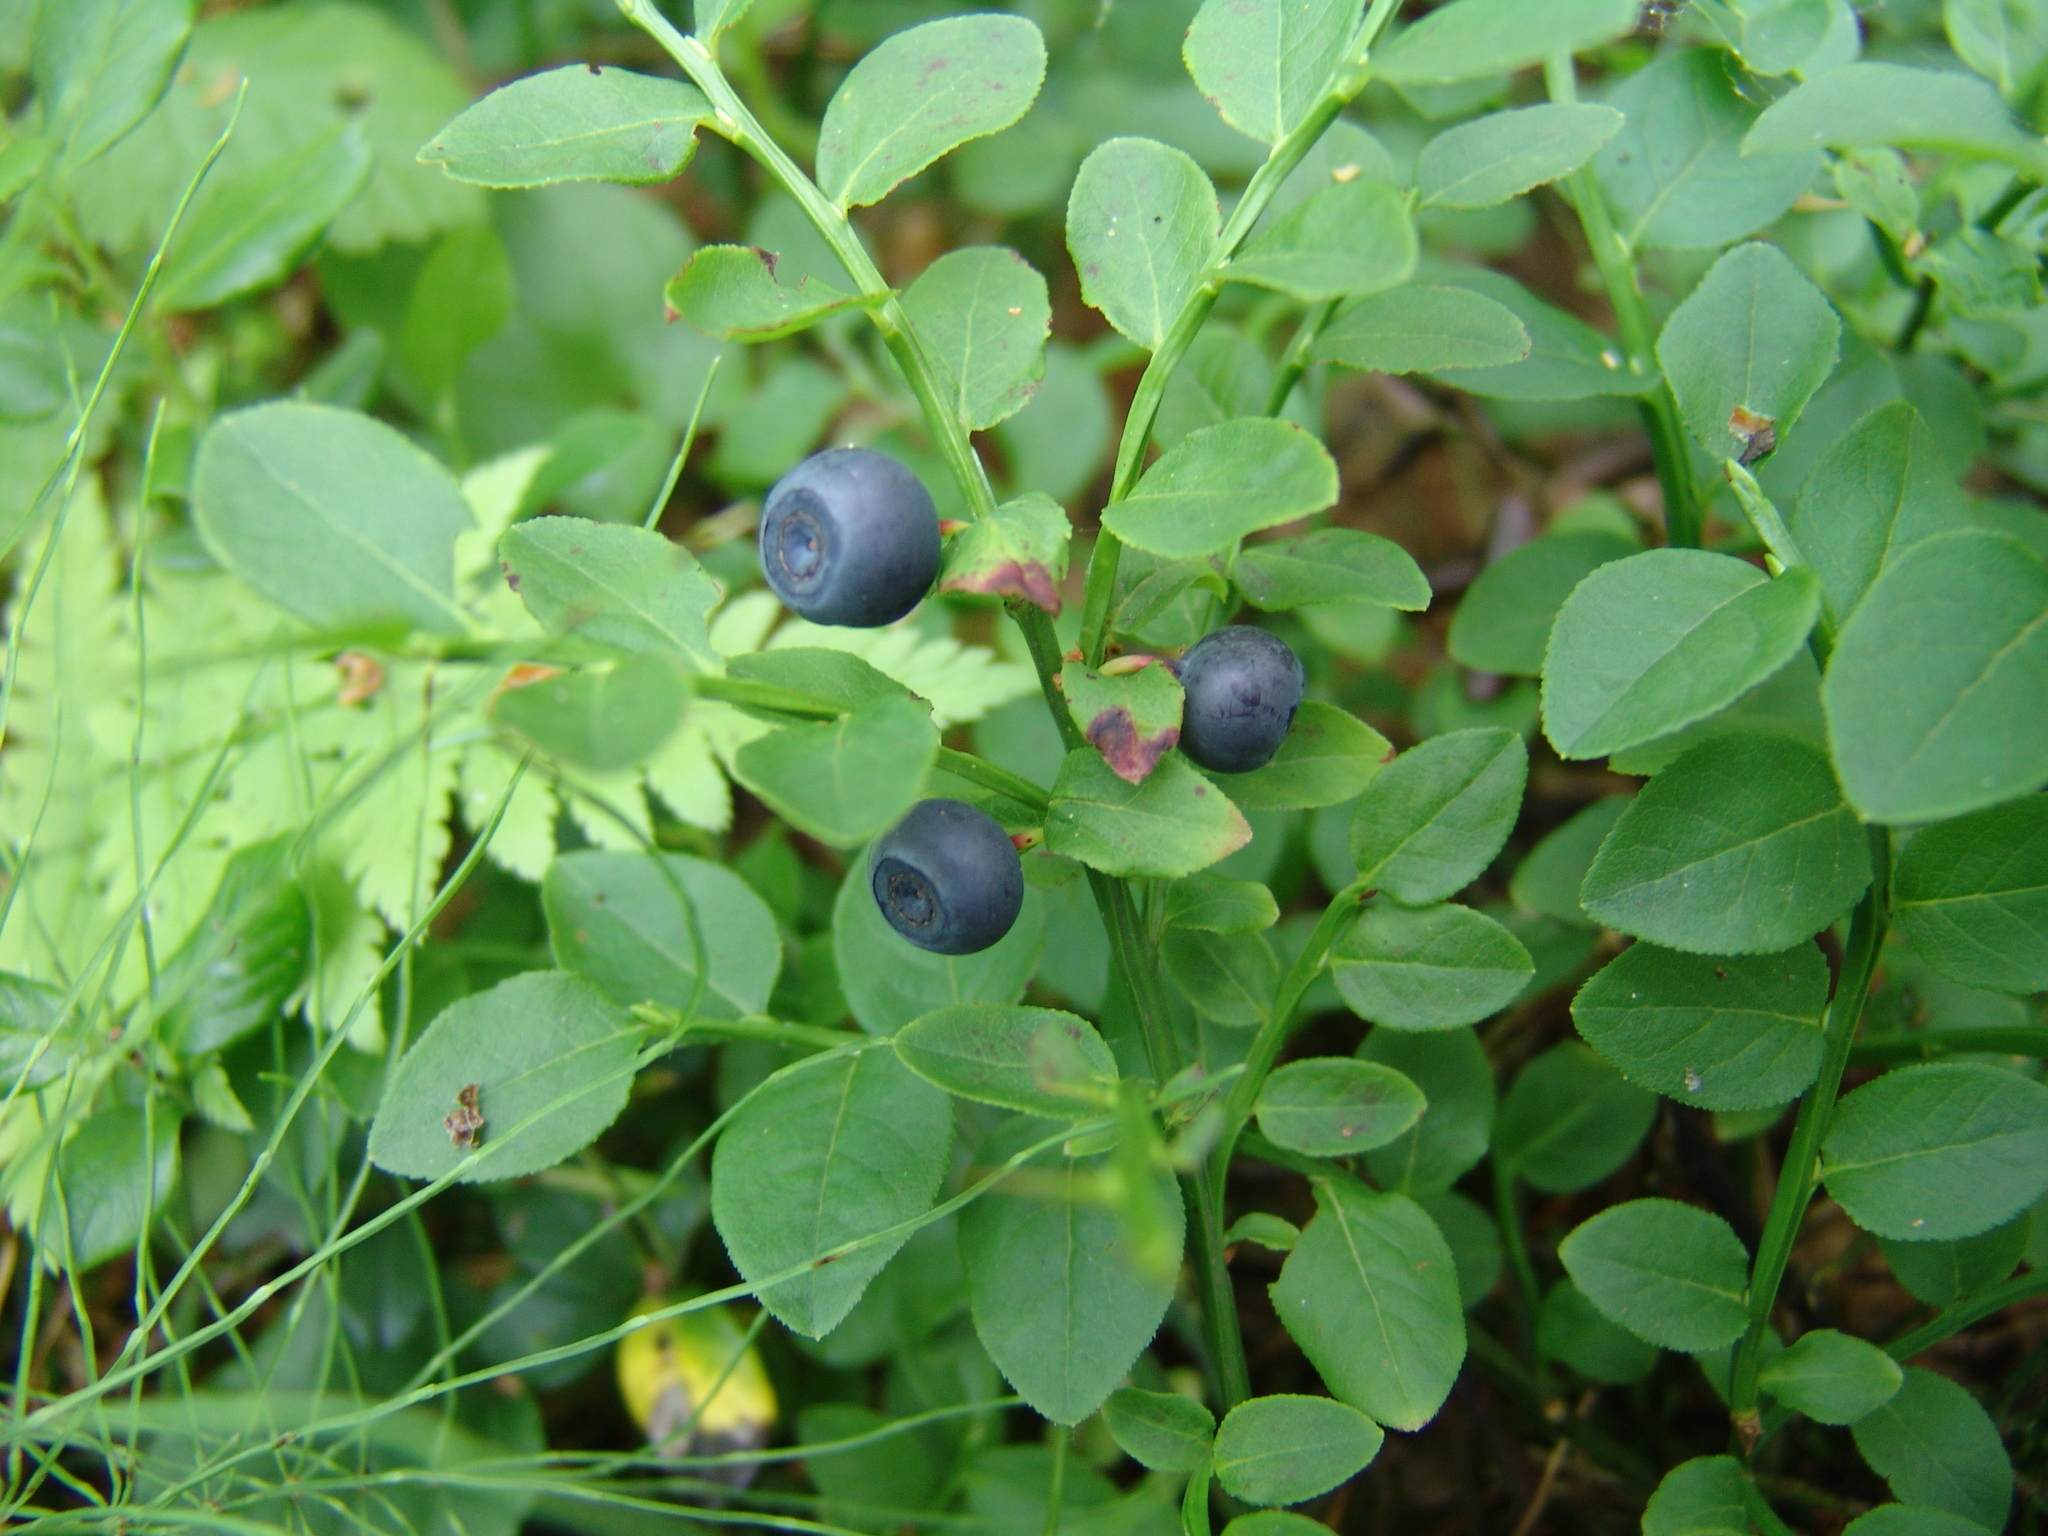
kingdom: Plantae
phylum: Tracheophyta
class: Magnoliopsida
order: Ericales
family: Ericaceae
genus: Vaccinium
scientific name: Vaccinium myrtillus
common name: Bilberry
